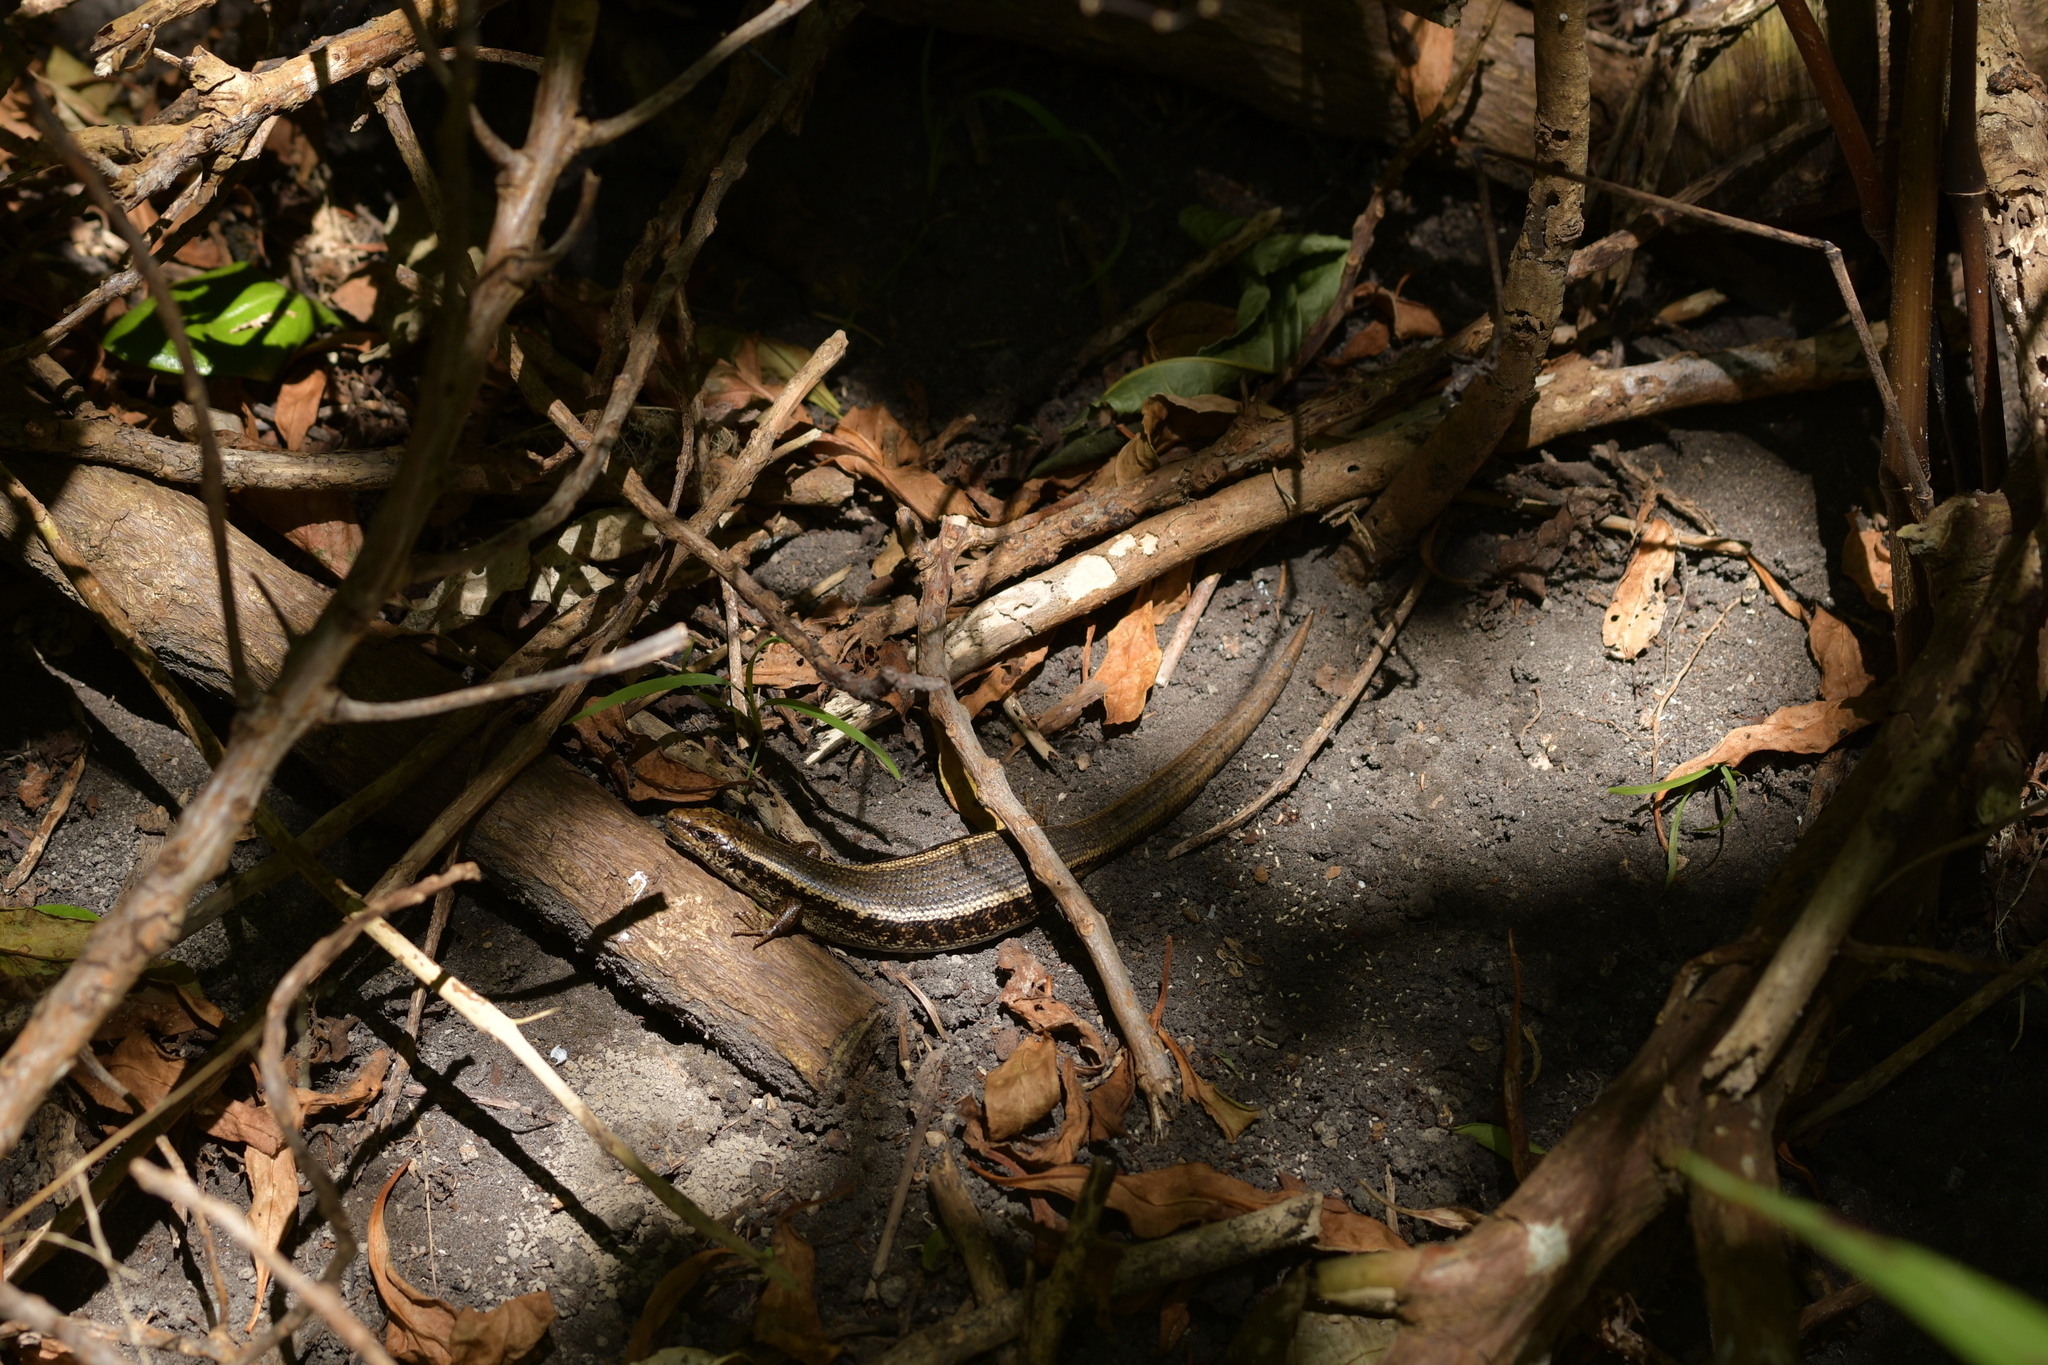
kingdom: Animalia
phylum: Chordata
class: Squamata
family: Scincidae
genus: Oligosoma
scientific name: Oligosoma kokowai
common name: Northern spotted skink
